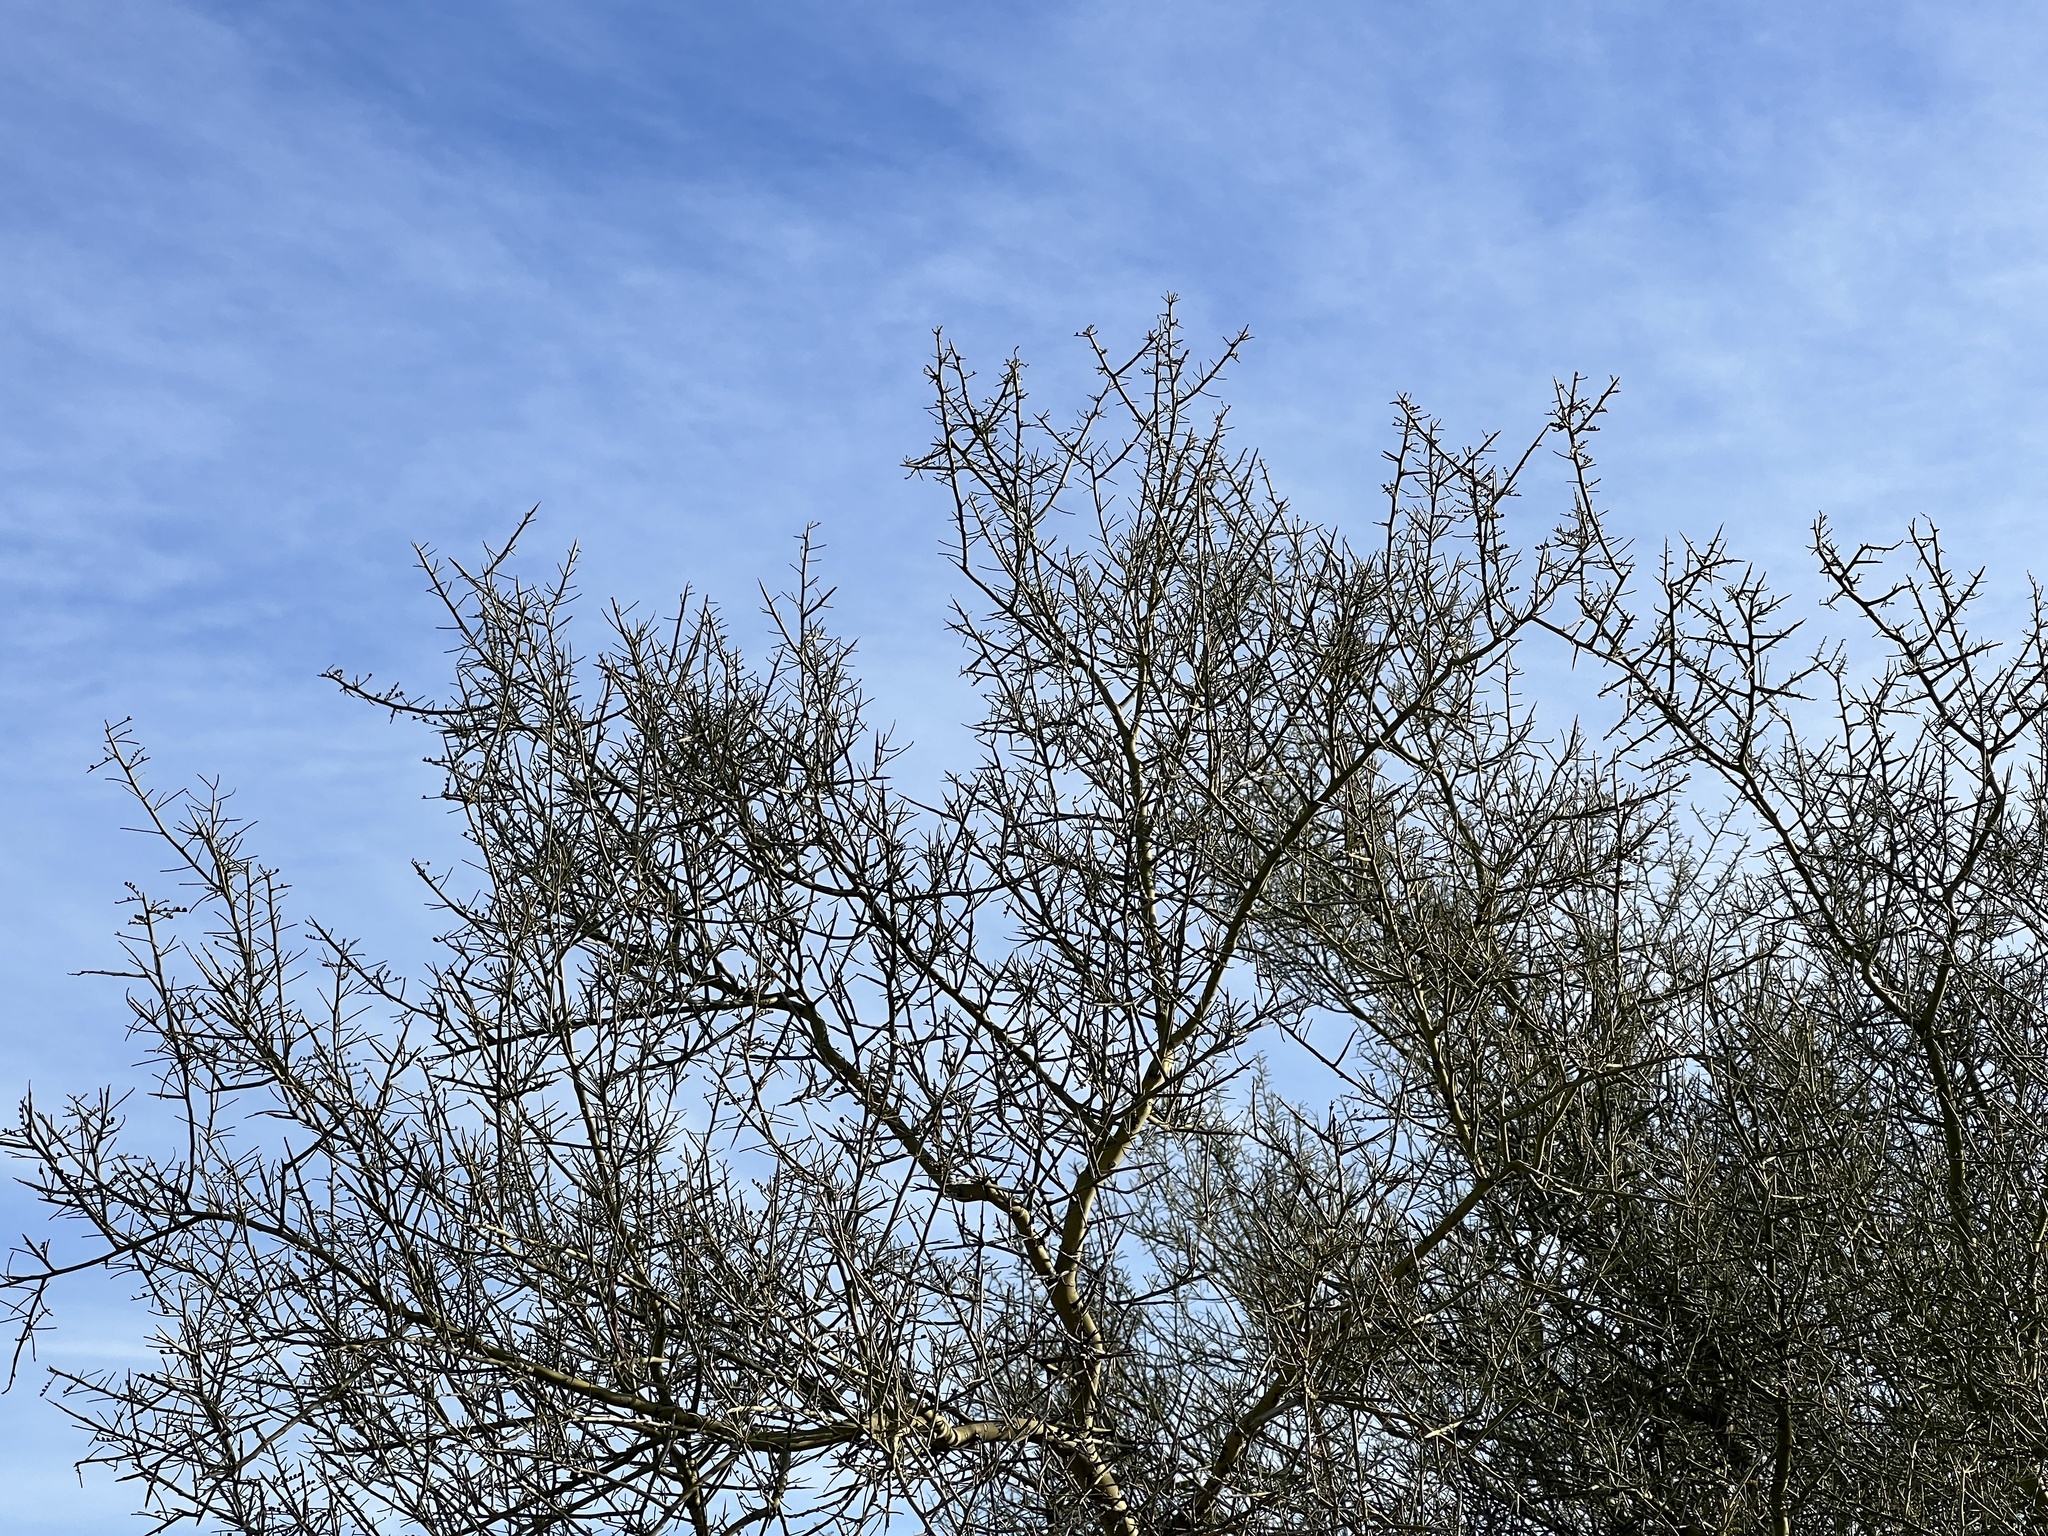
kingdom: Plantae
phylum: Tracheophyta
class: Magnoliopsida
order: Fabales
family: Fabaceae
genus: Parkinsonia
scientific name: Parkinsonia microphylla
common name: Yellow paloverde
